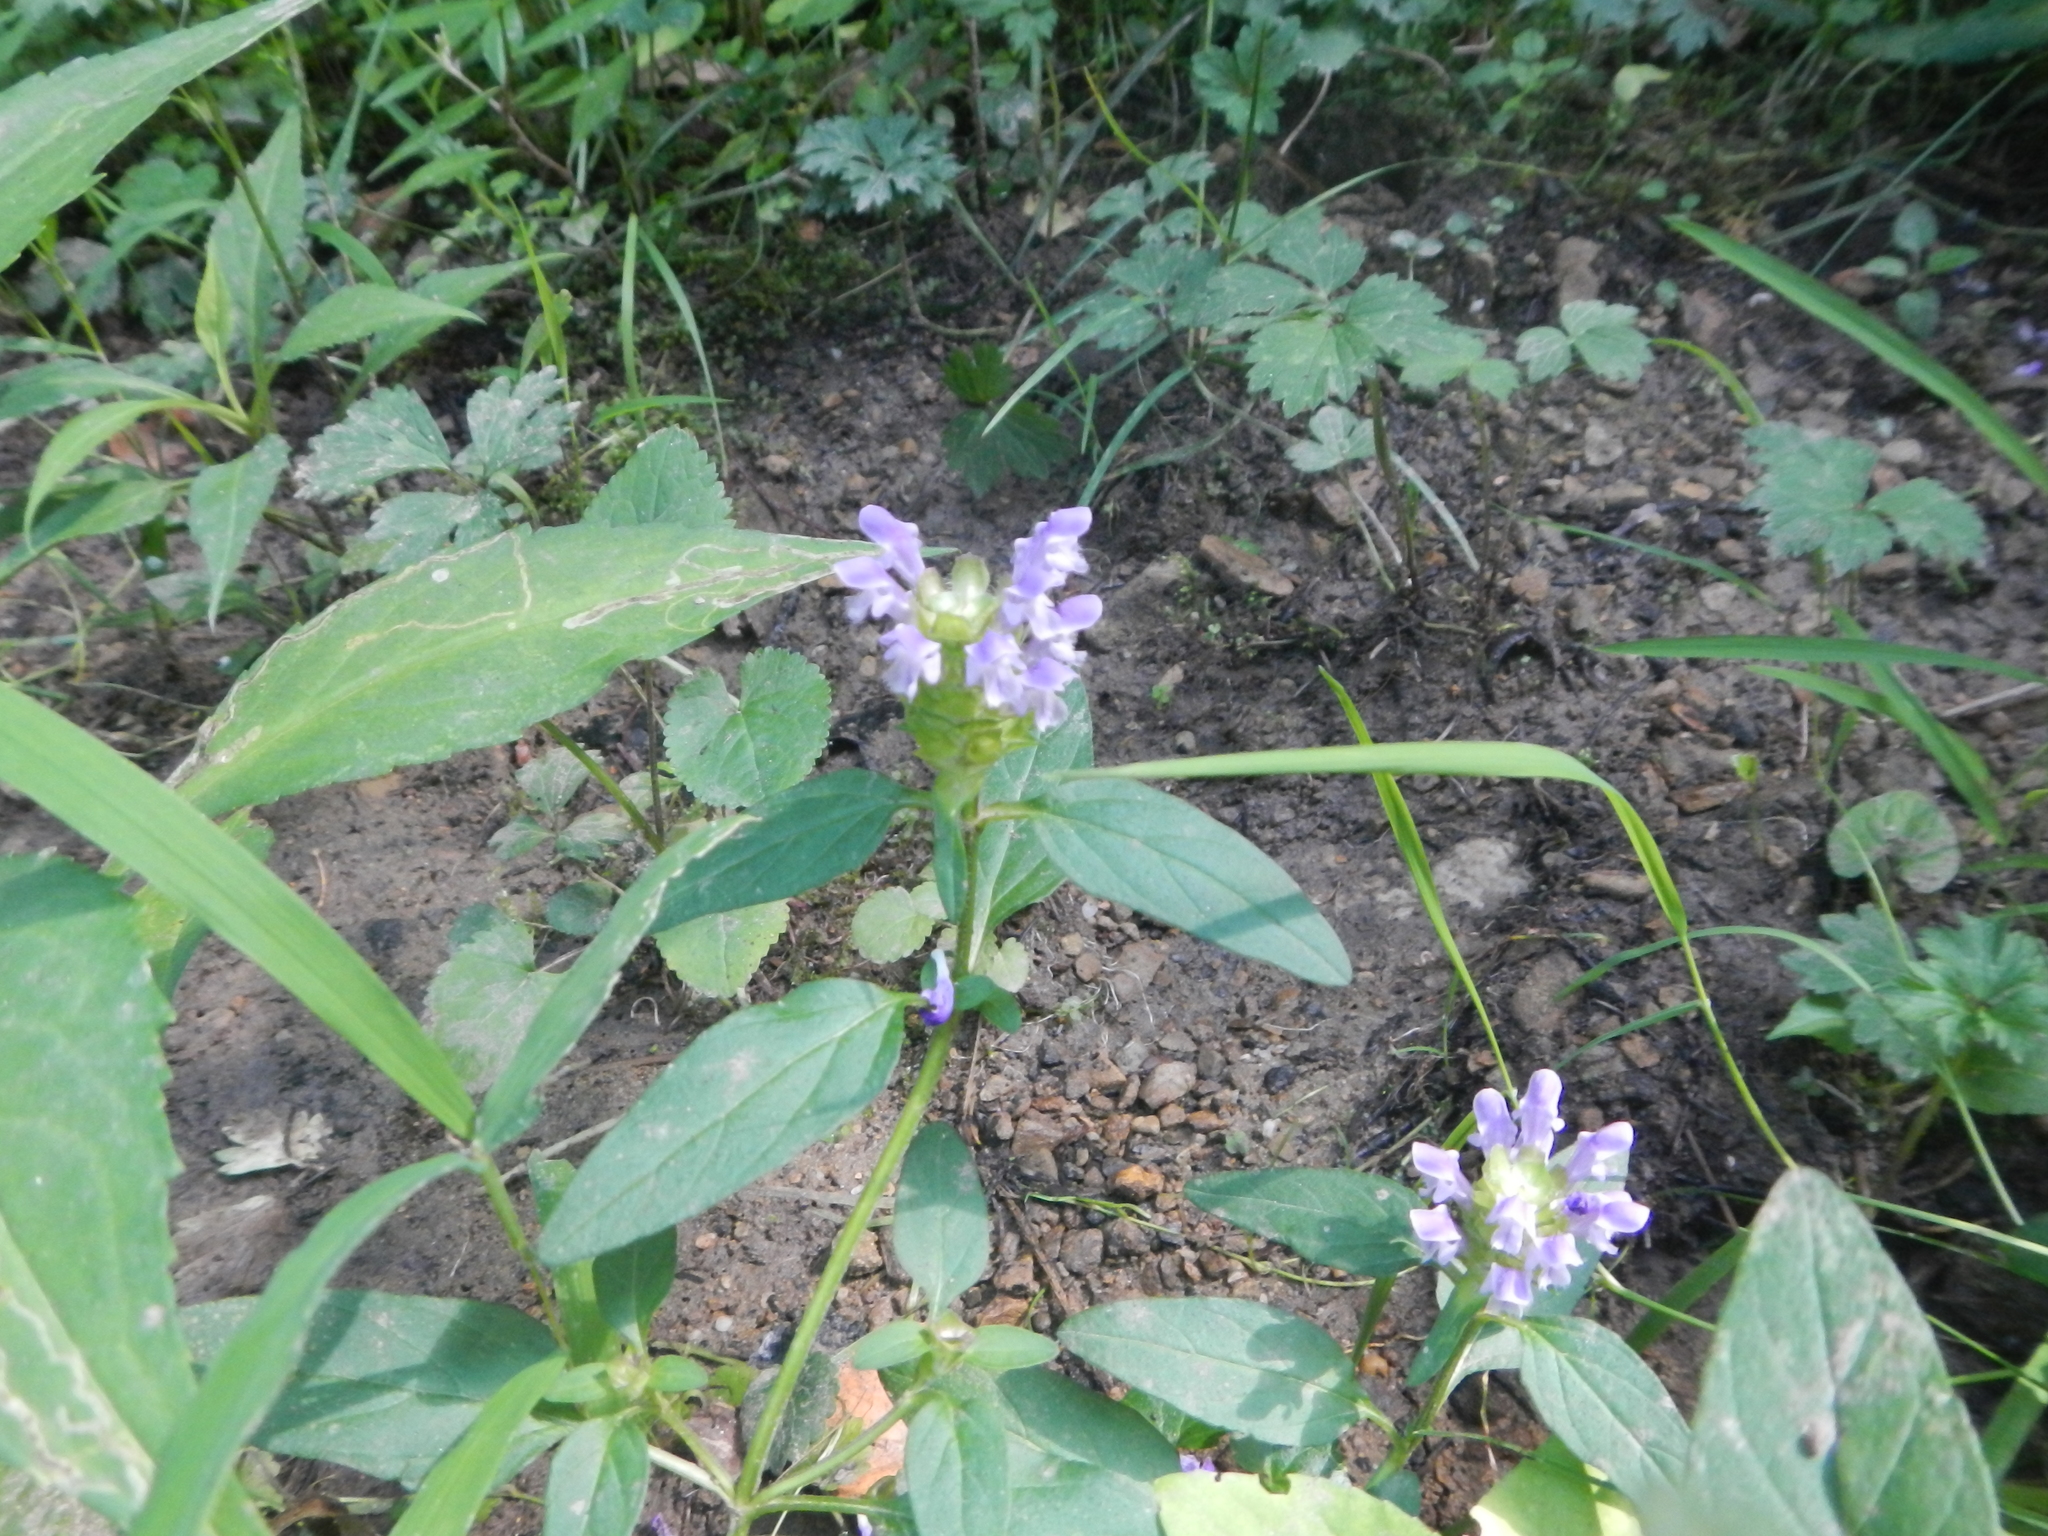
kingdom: Plantae
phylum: Tracheophyta
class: Magnoliopsida
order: Lamiales
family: Lamiaceae
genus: Prunella
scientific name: Prunella vulgaris
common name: Heal-all
